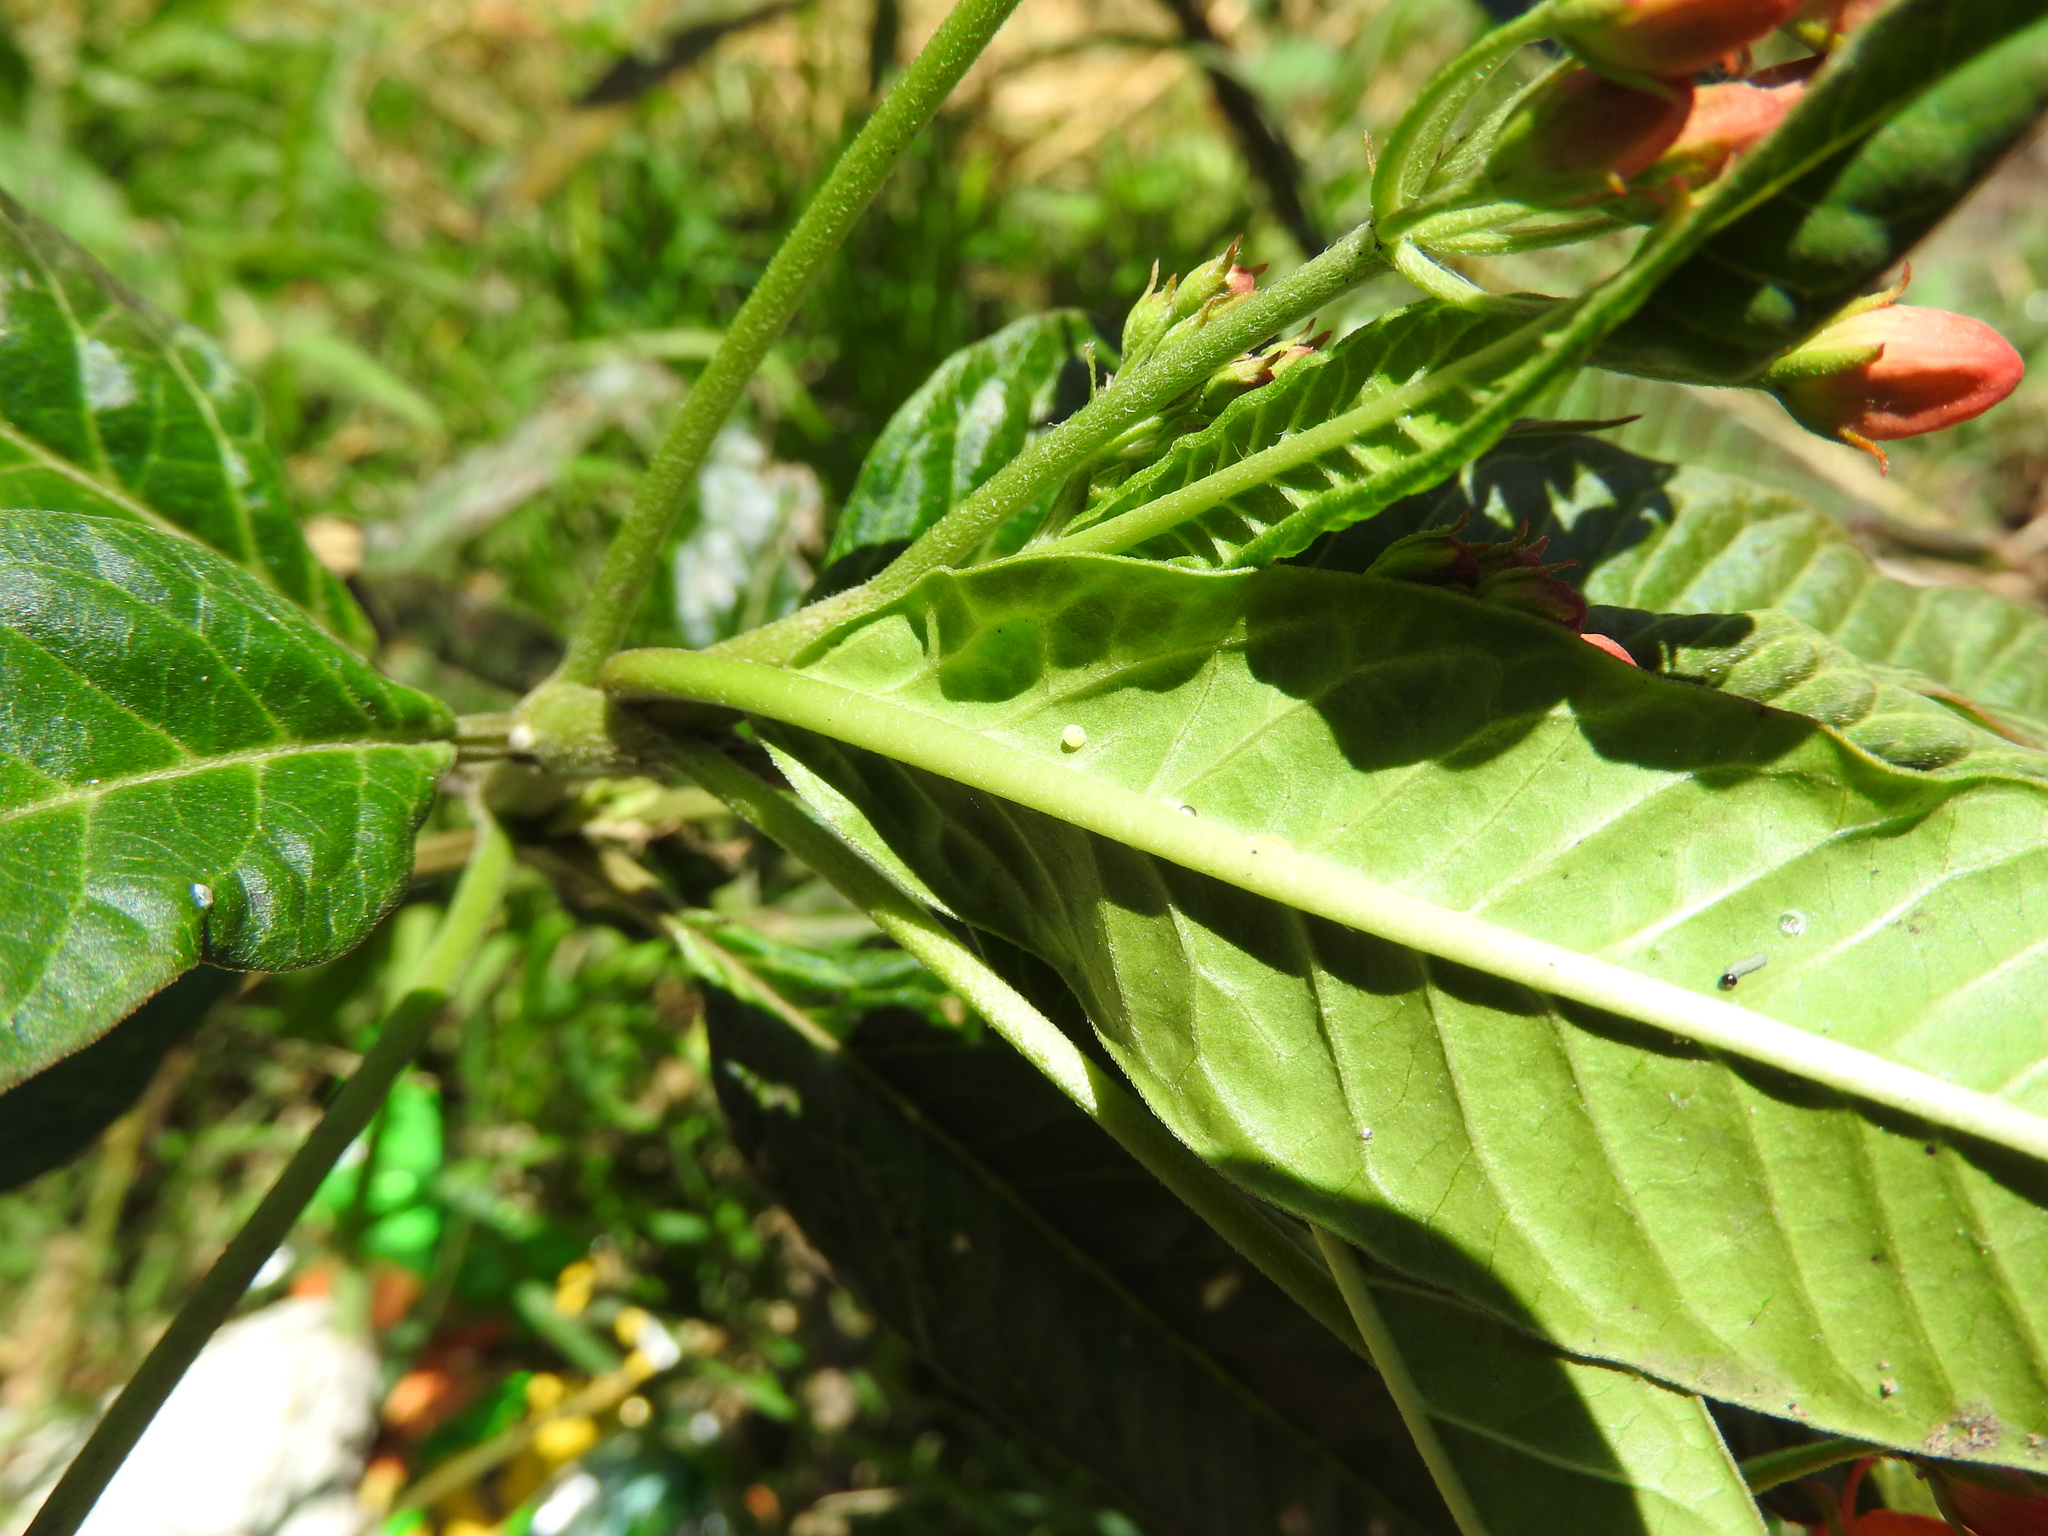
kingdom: Animalia
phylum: Arthropoda
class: Insecta
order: Lepidoptera
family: Nymphalidae
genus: Danaus
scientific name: Danaus plexippus
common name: Monarch
